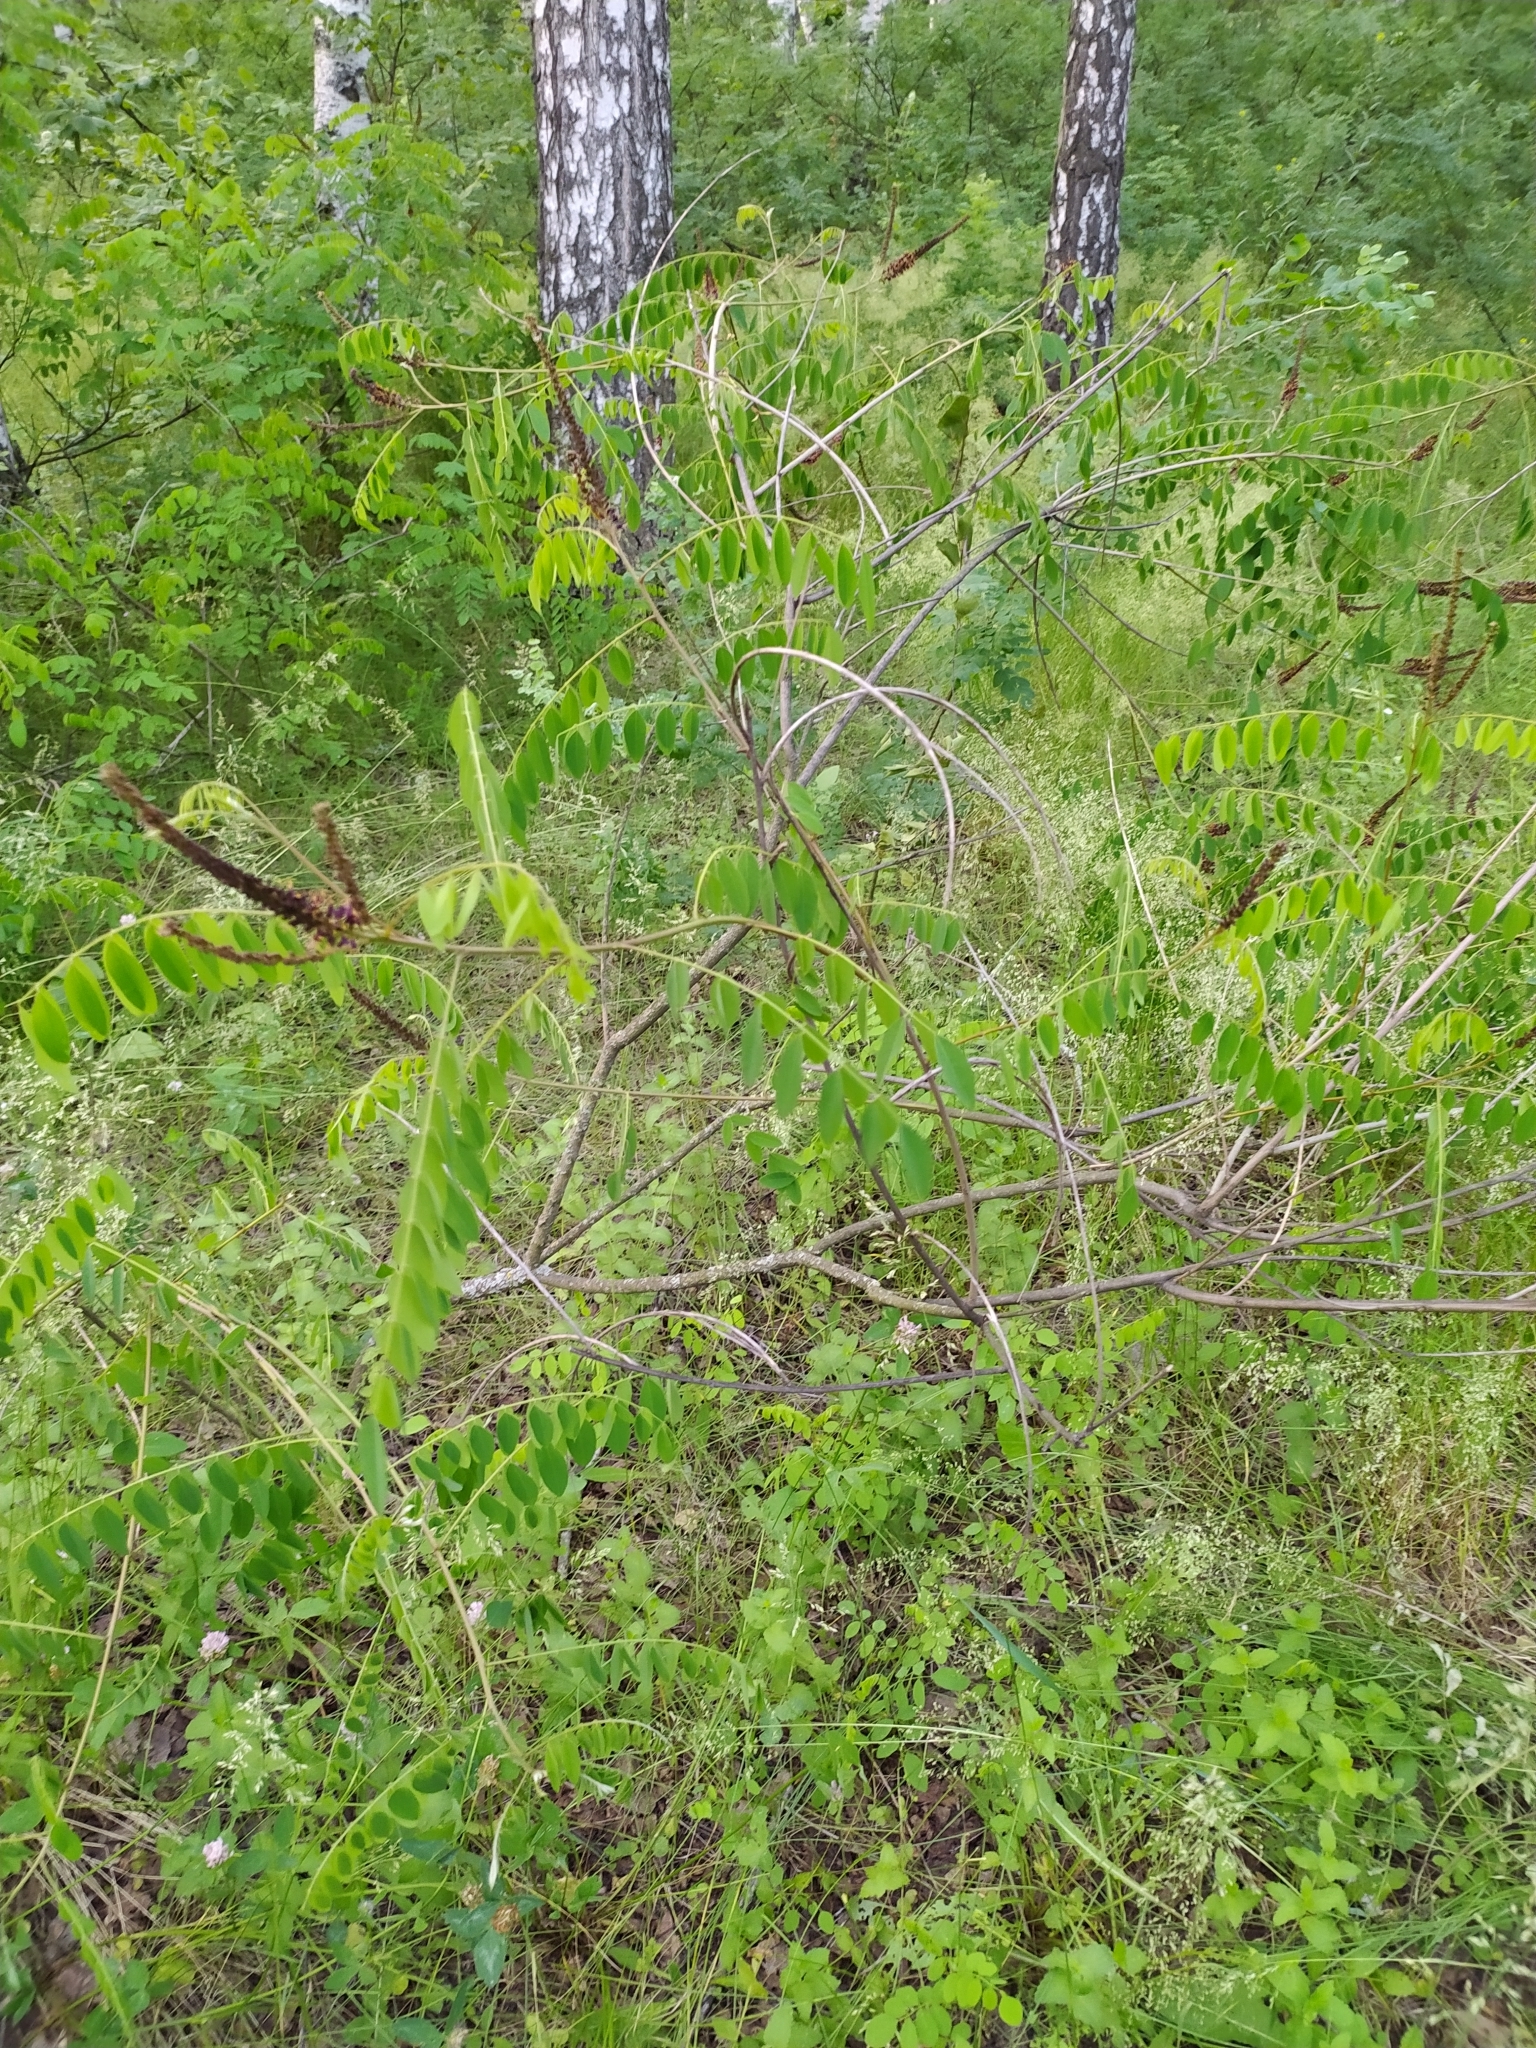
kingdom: Plantae
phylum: Tracheophyta
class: Magnoliopsida
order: Fabales
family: Fabaceae
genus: Amorpha
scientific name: Amorpha fruticosa
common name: False indigo
